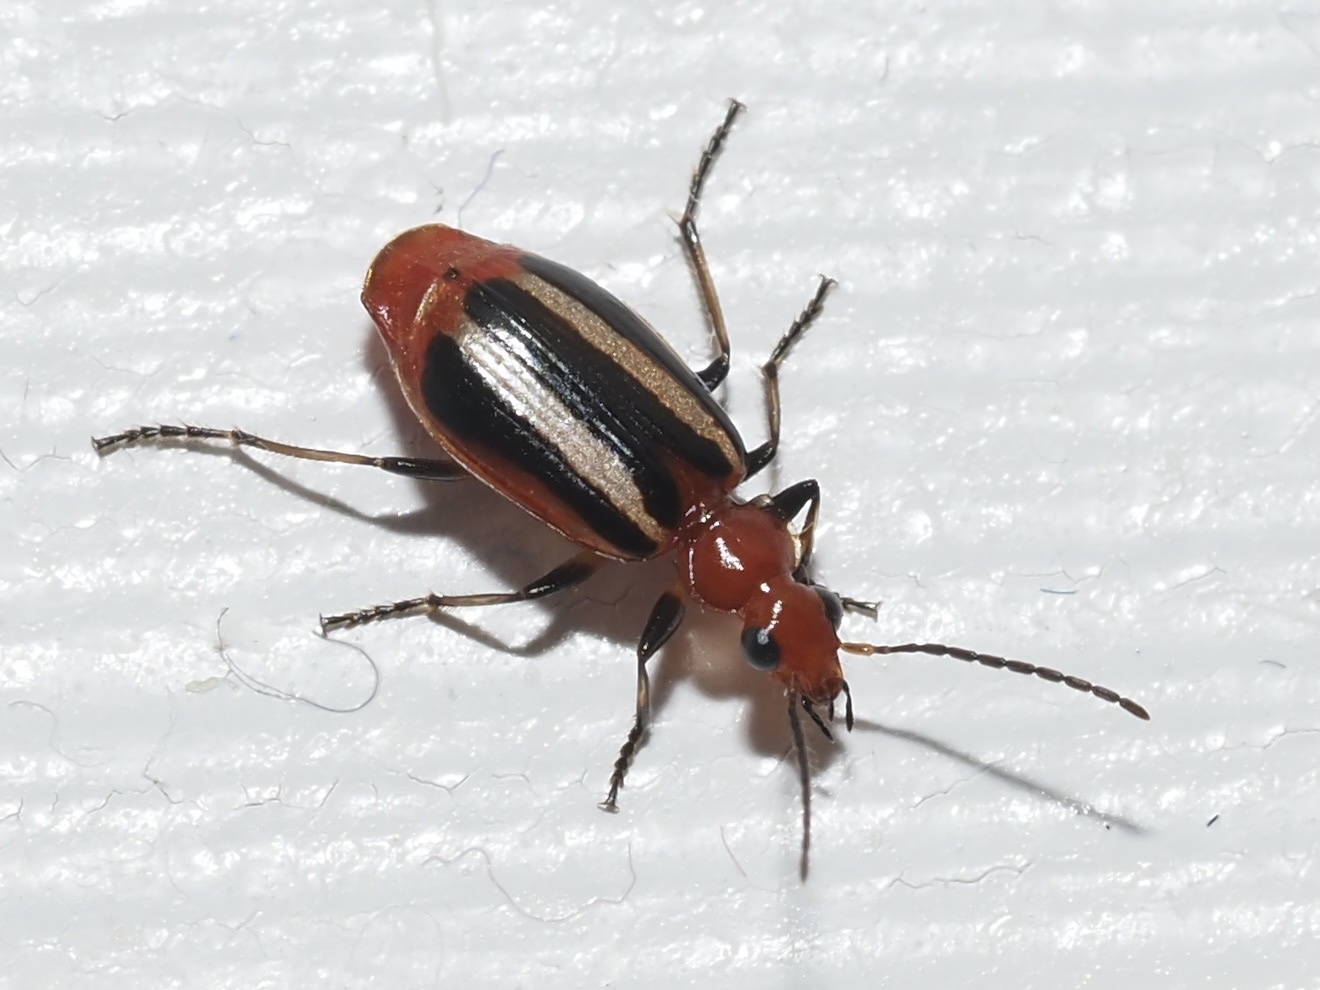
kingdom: Animalia
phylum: Arthropoda
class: Insecta
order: Coleoptera
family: Carabidae
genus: Lebia
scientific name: Lebia vittata
